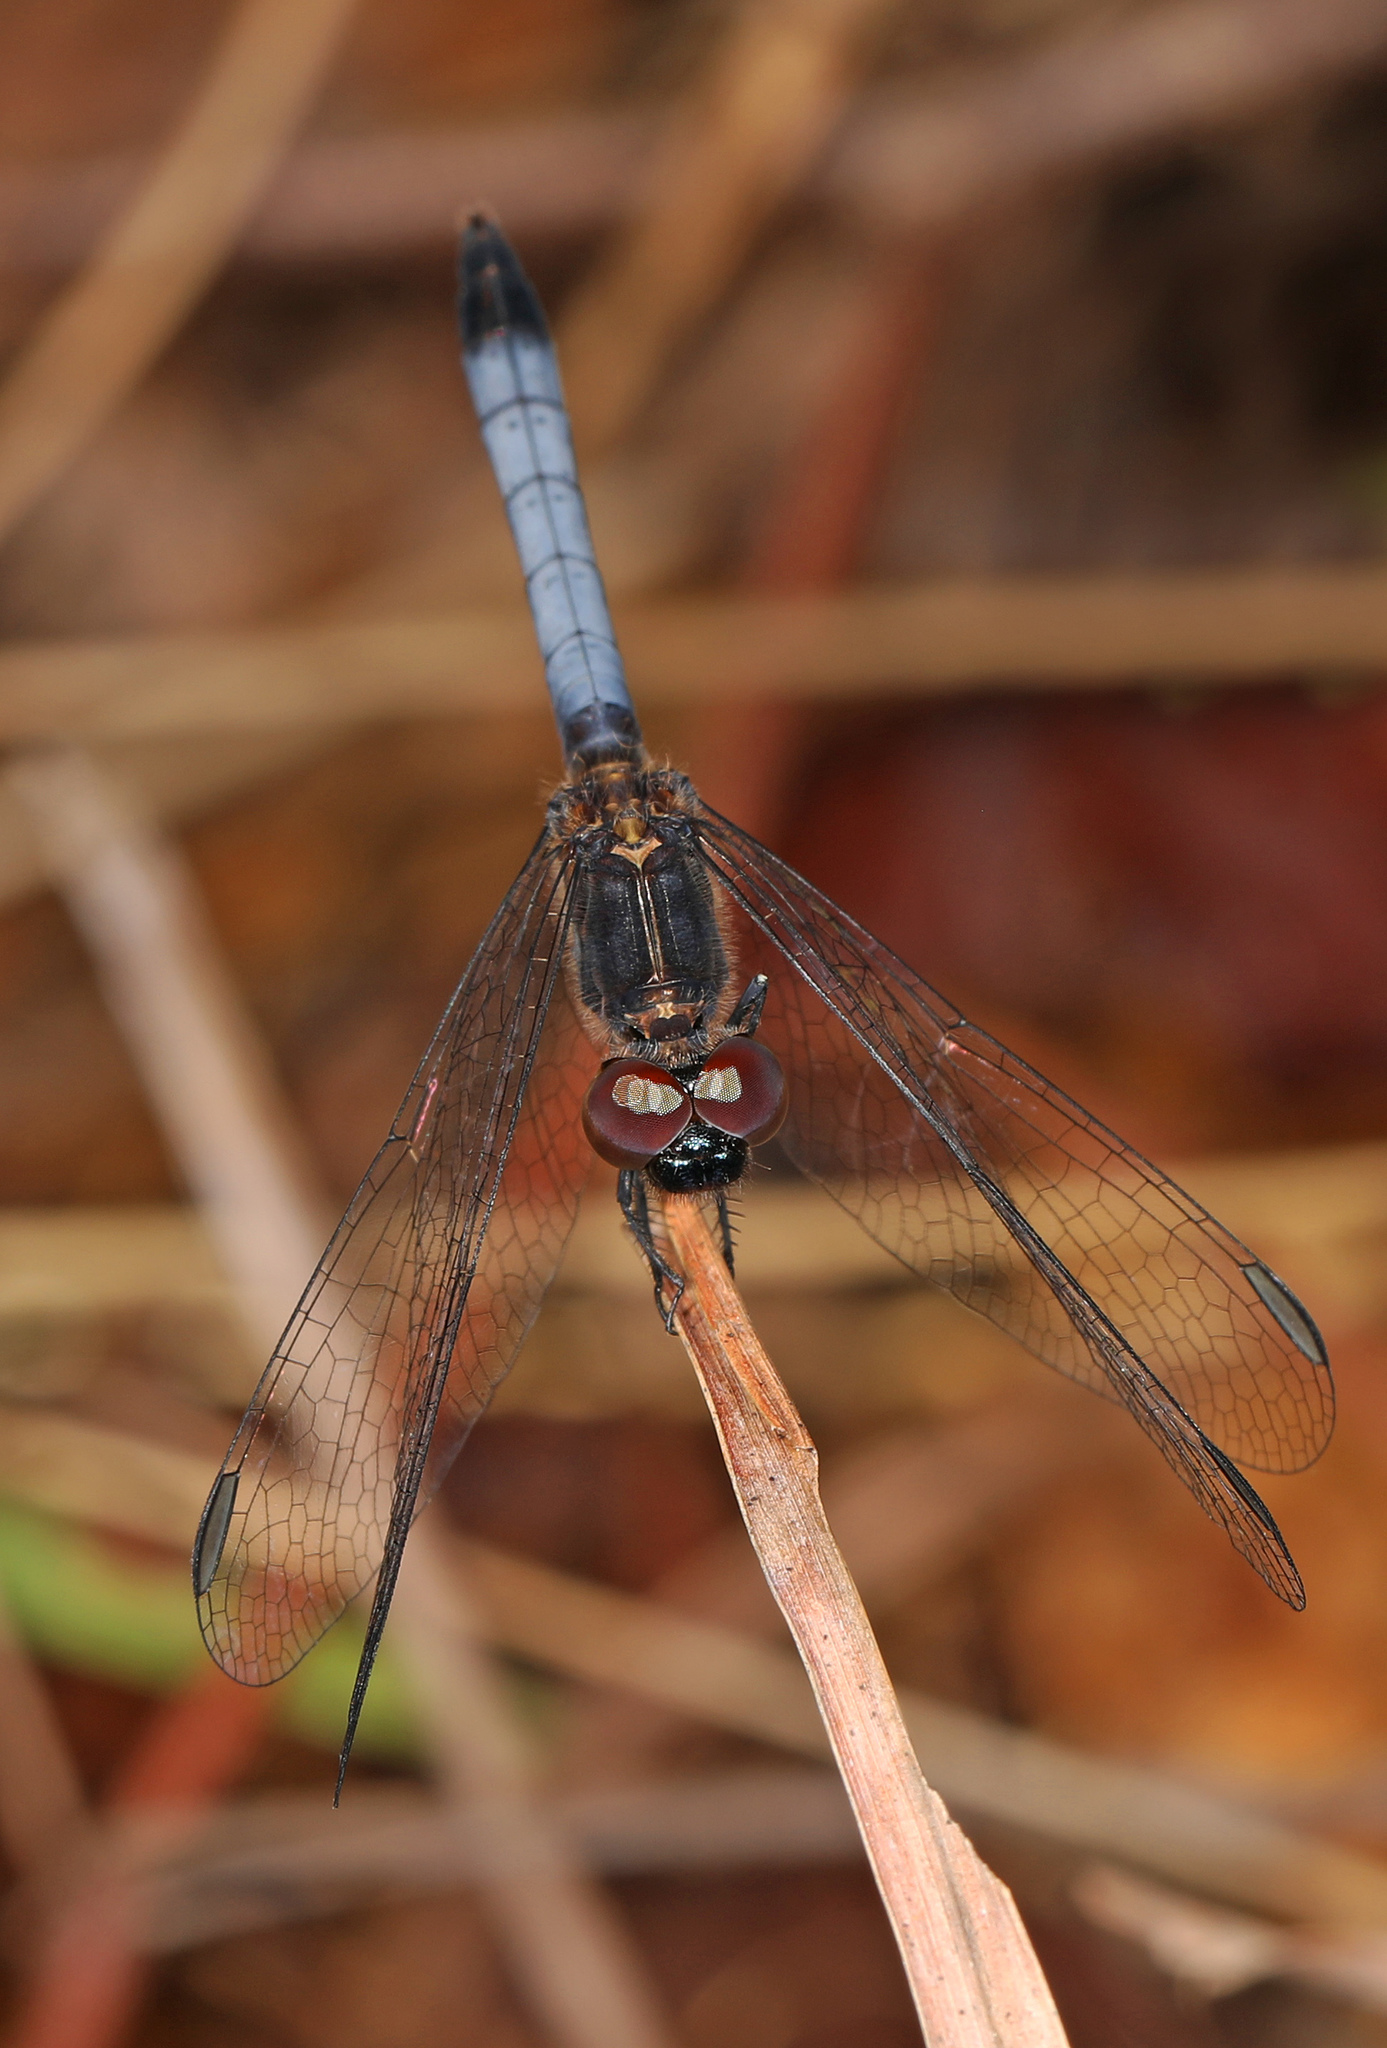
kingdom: Animalia
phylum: Arthropoda
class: Insecta
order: Odonata
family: Libellulidae
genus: Erythrodiplax
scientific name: Erythrodiplax minuscula
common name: Little blue dragonlet
